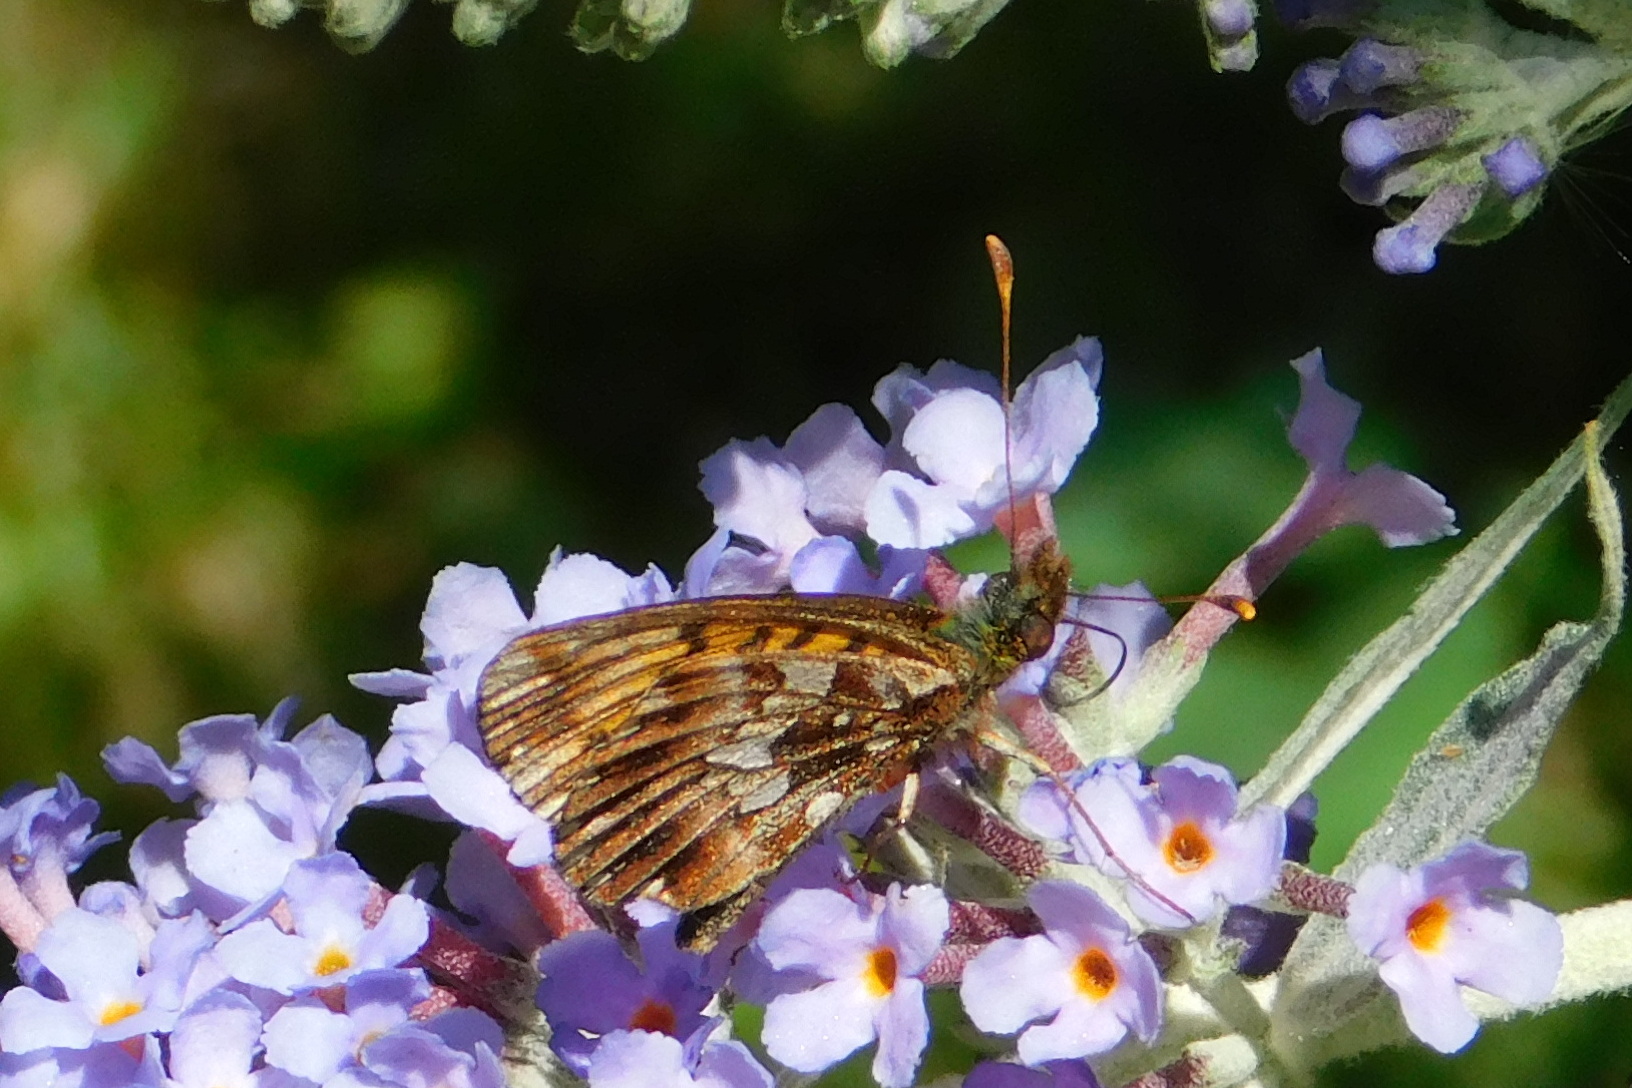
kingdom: Animalia
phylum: Arthropoda
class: Insecta
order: Lepidoptera
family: Nymphalidae
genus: Boloria
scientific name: Boloria dia
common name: Weaver's fritillary
